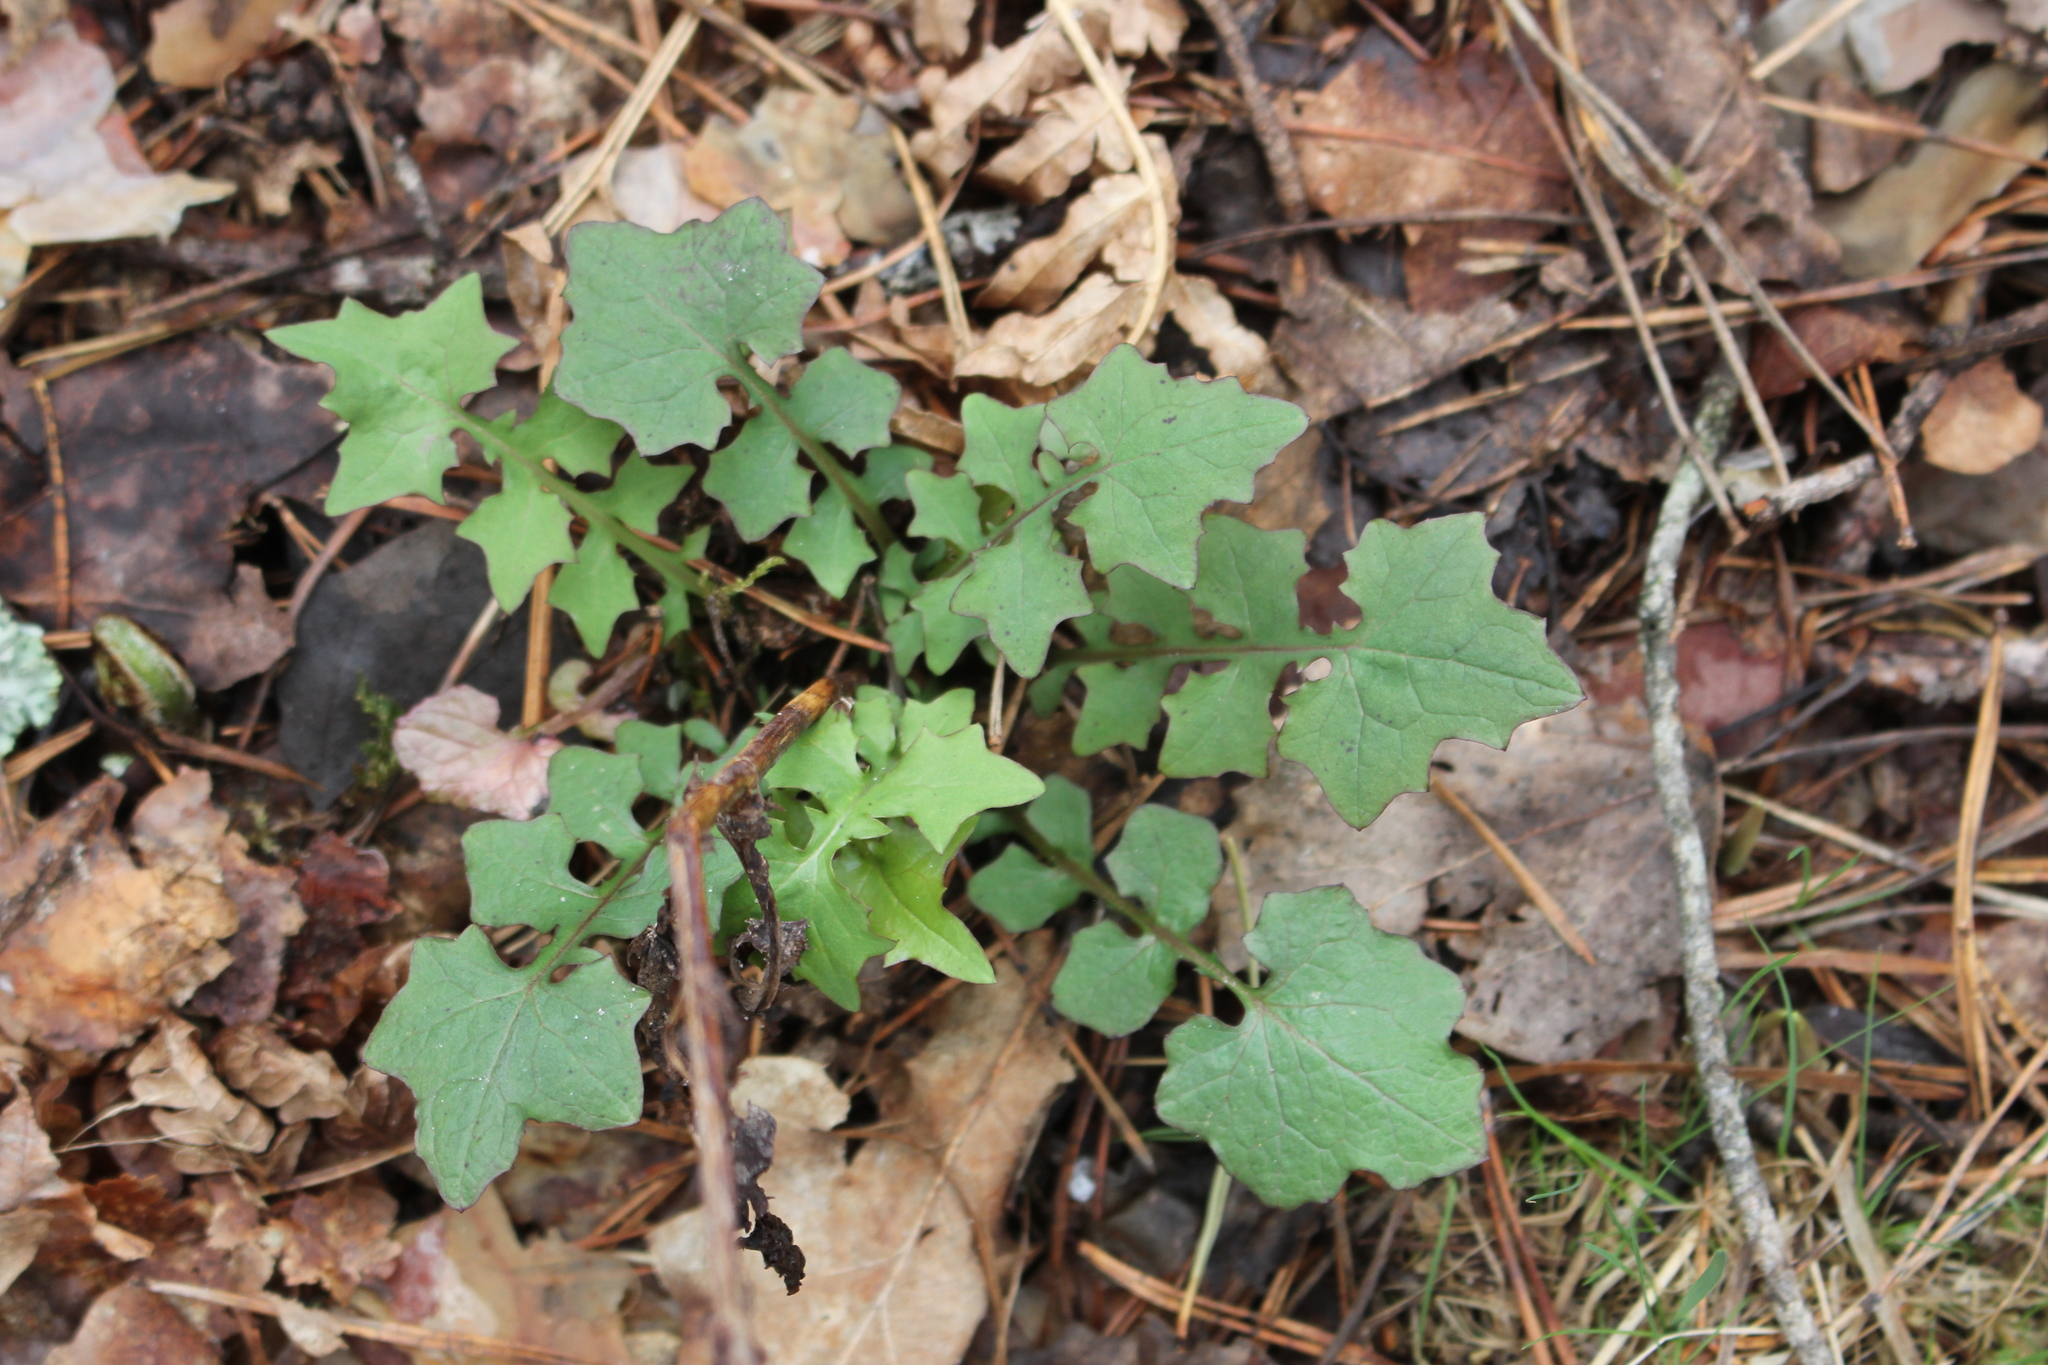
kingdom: Plantae
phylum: Tracheophyta
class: Magnoliopsida
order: Asterales
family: Asteraceae
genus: Mycelis
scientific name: Mycelis muralis
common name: Wall lettuce
